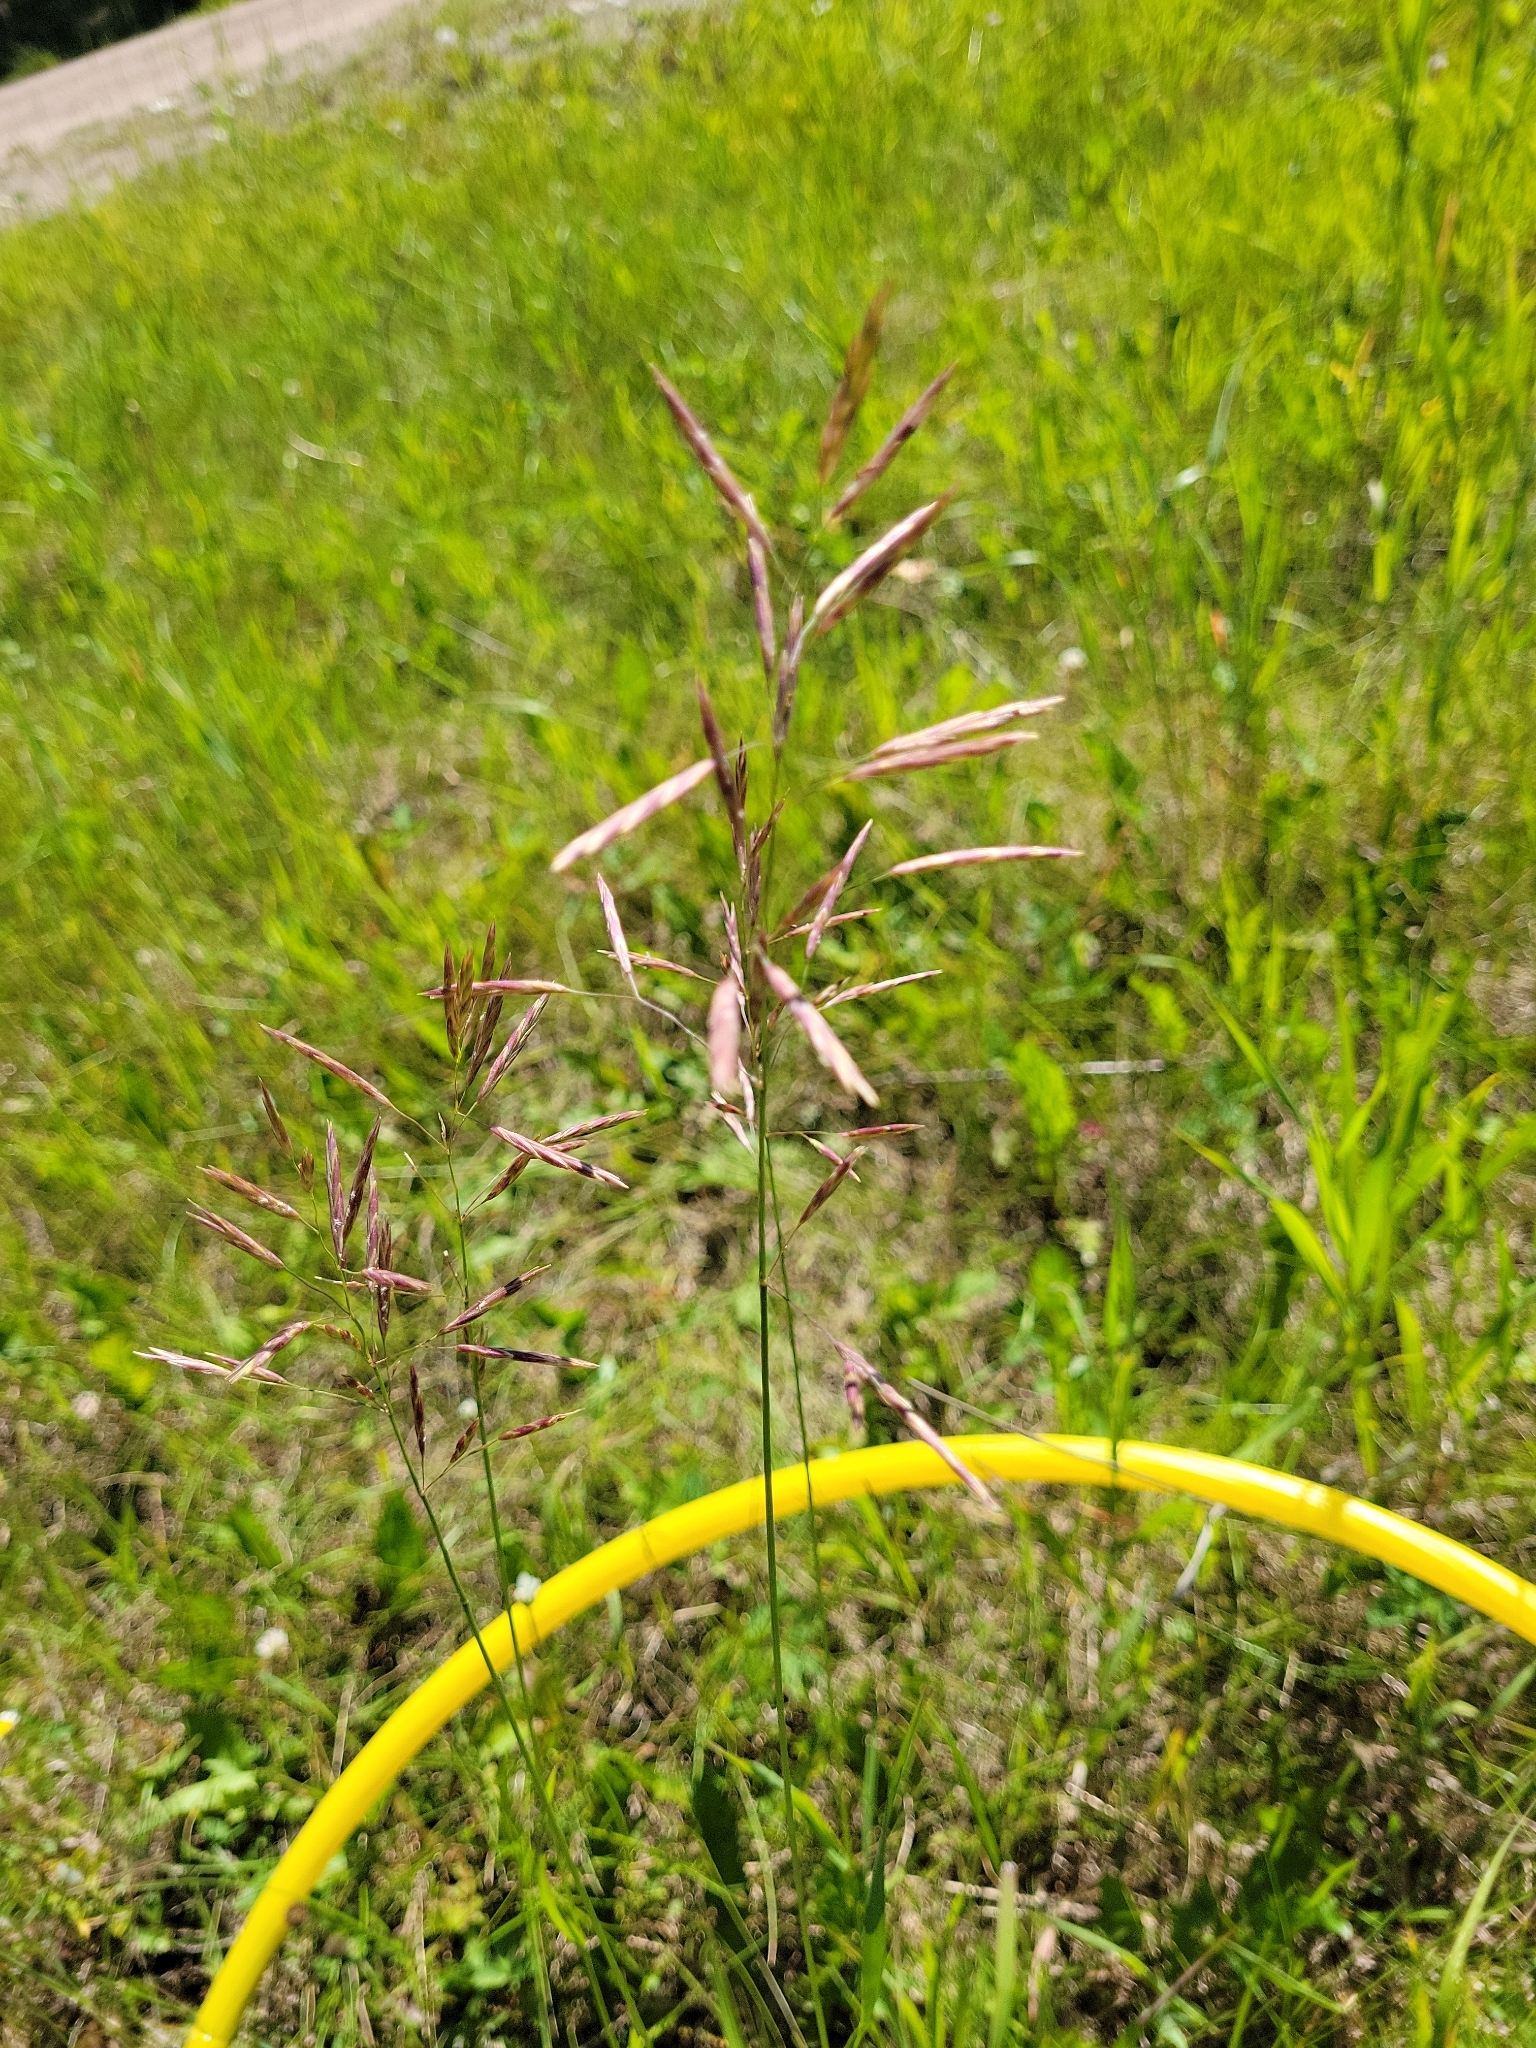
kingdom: Plantae
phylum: Tracheophyta
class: Liliopsida
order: Poales
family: Poaceae
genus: Bromus
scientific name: Bromus inermis
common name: Smooth brome
